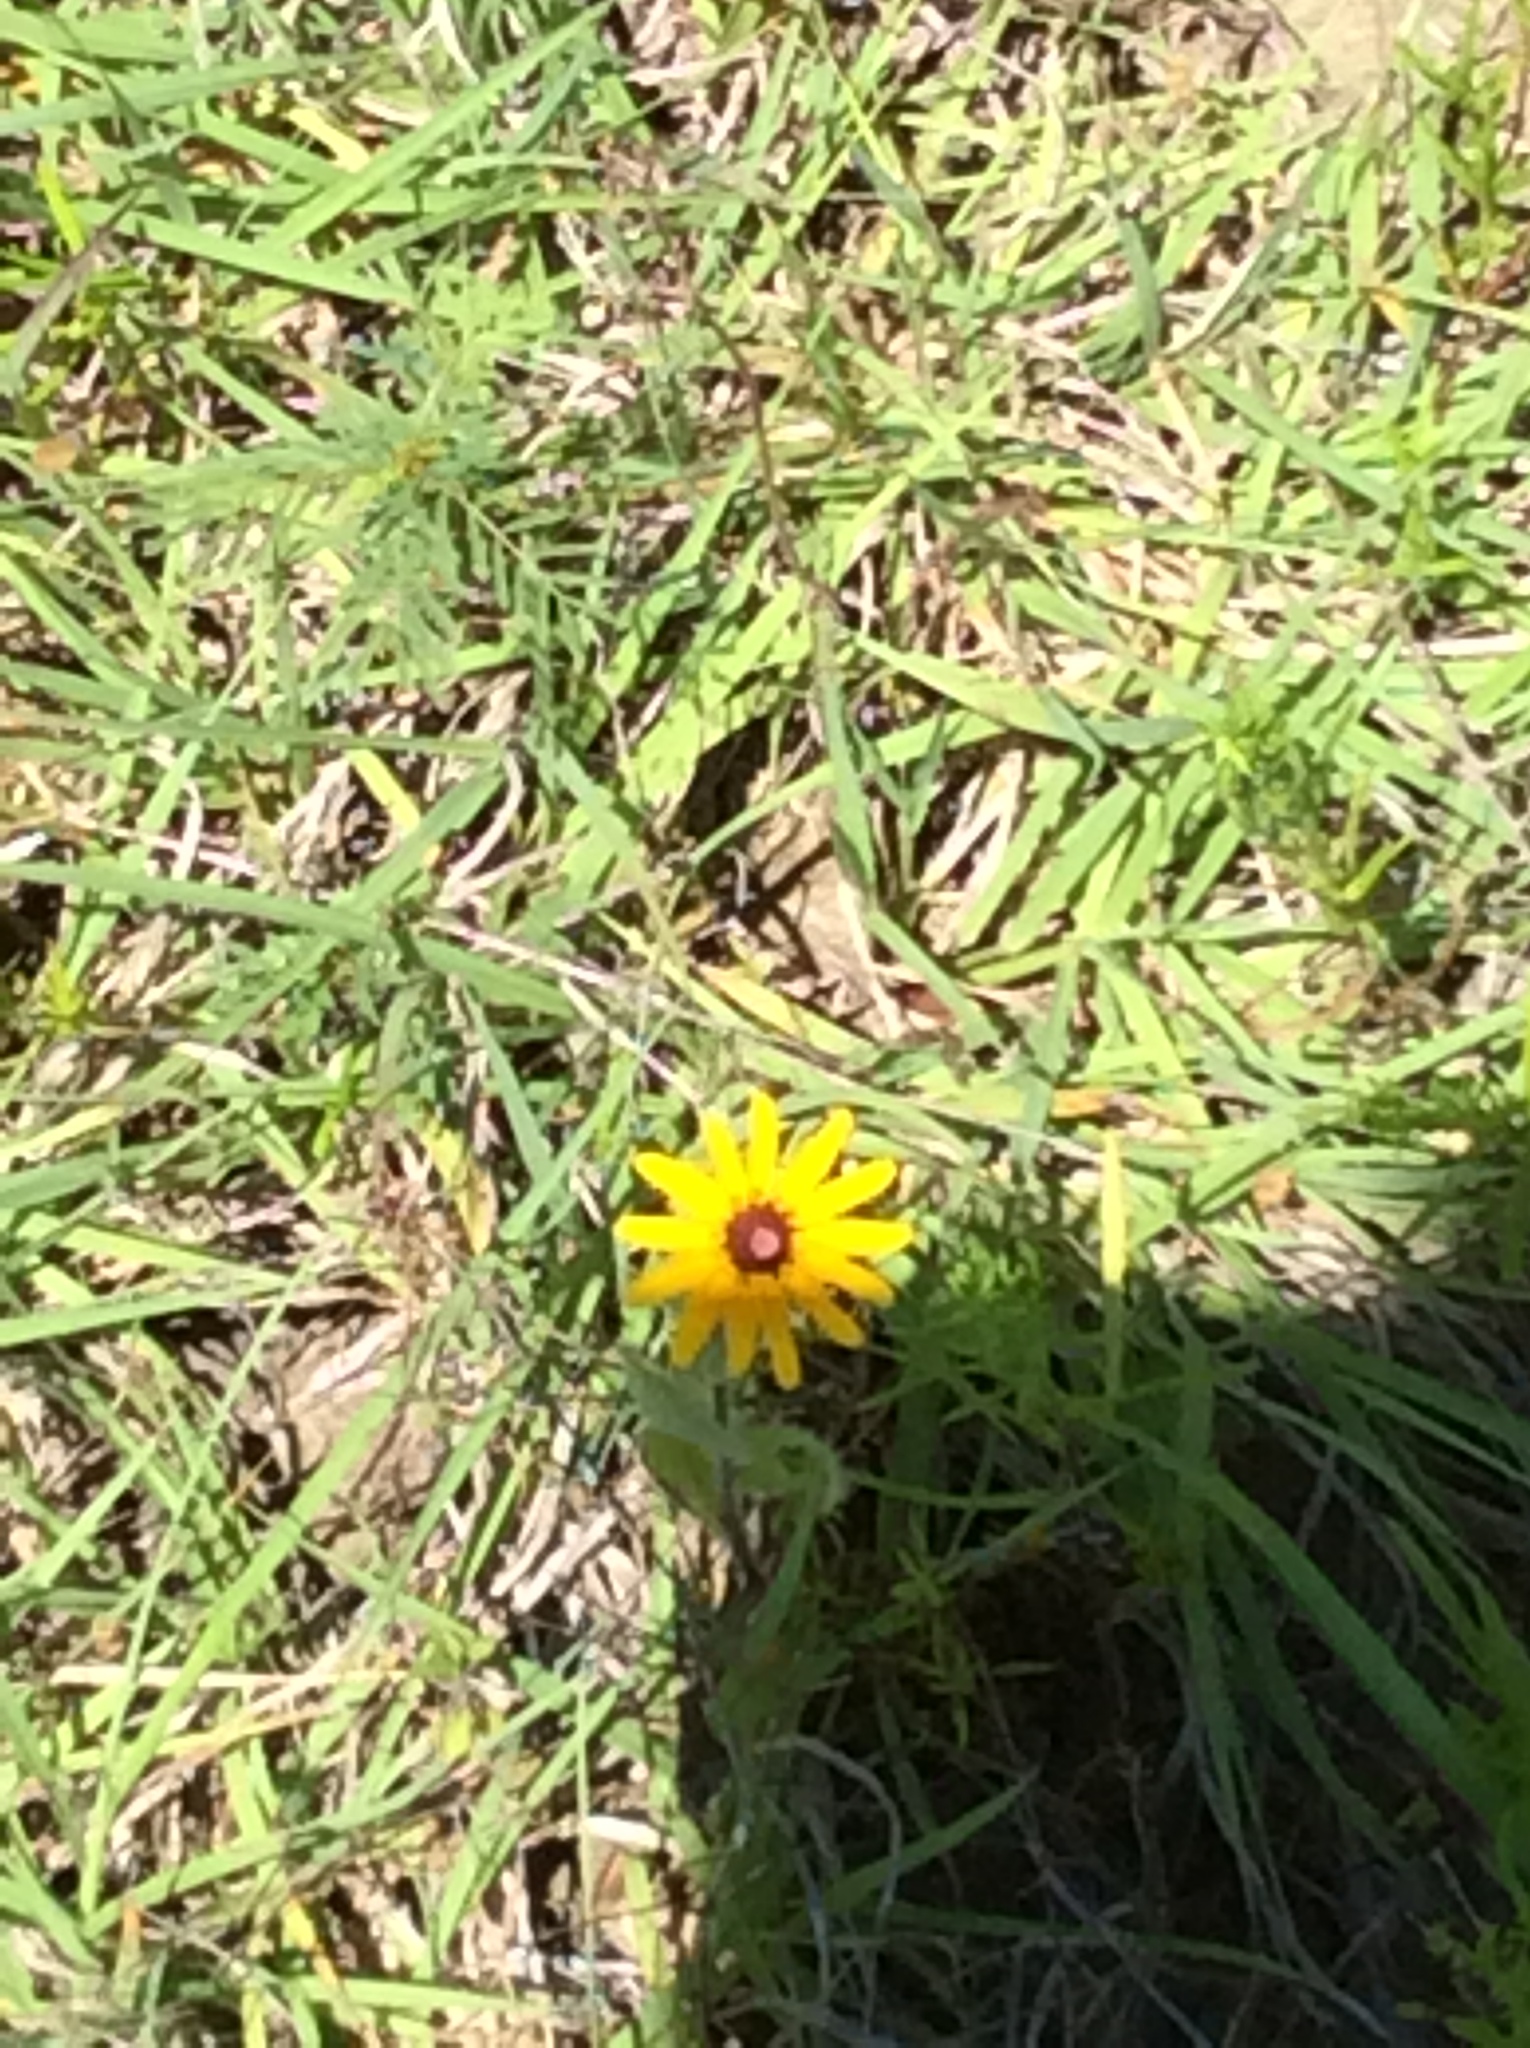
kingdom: Plantae
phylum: Tracheophyta
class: Magnoliopsida
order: Asterales
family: Asteraceae
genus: Rudbeckia
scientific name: Rudbeckia hirta
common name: Black-eyed-susan
